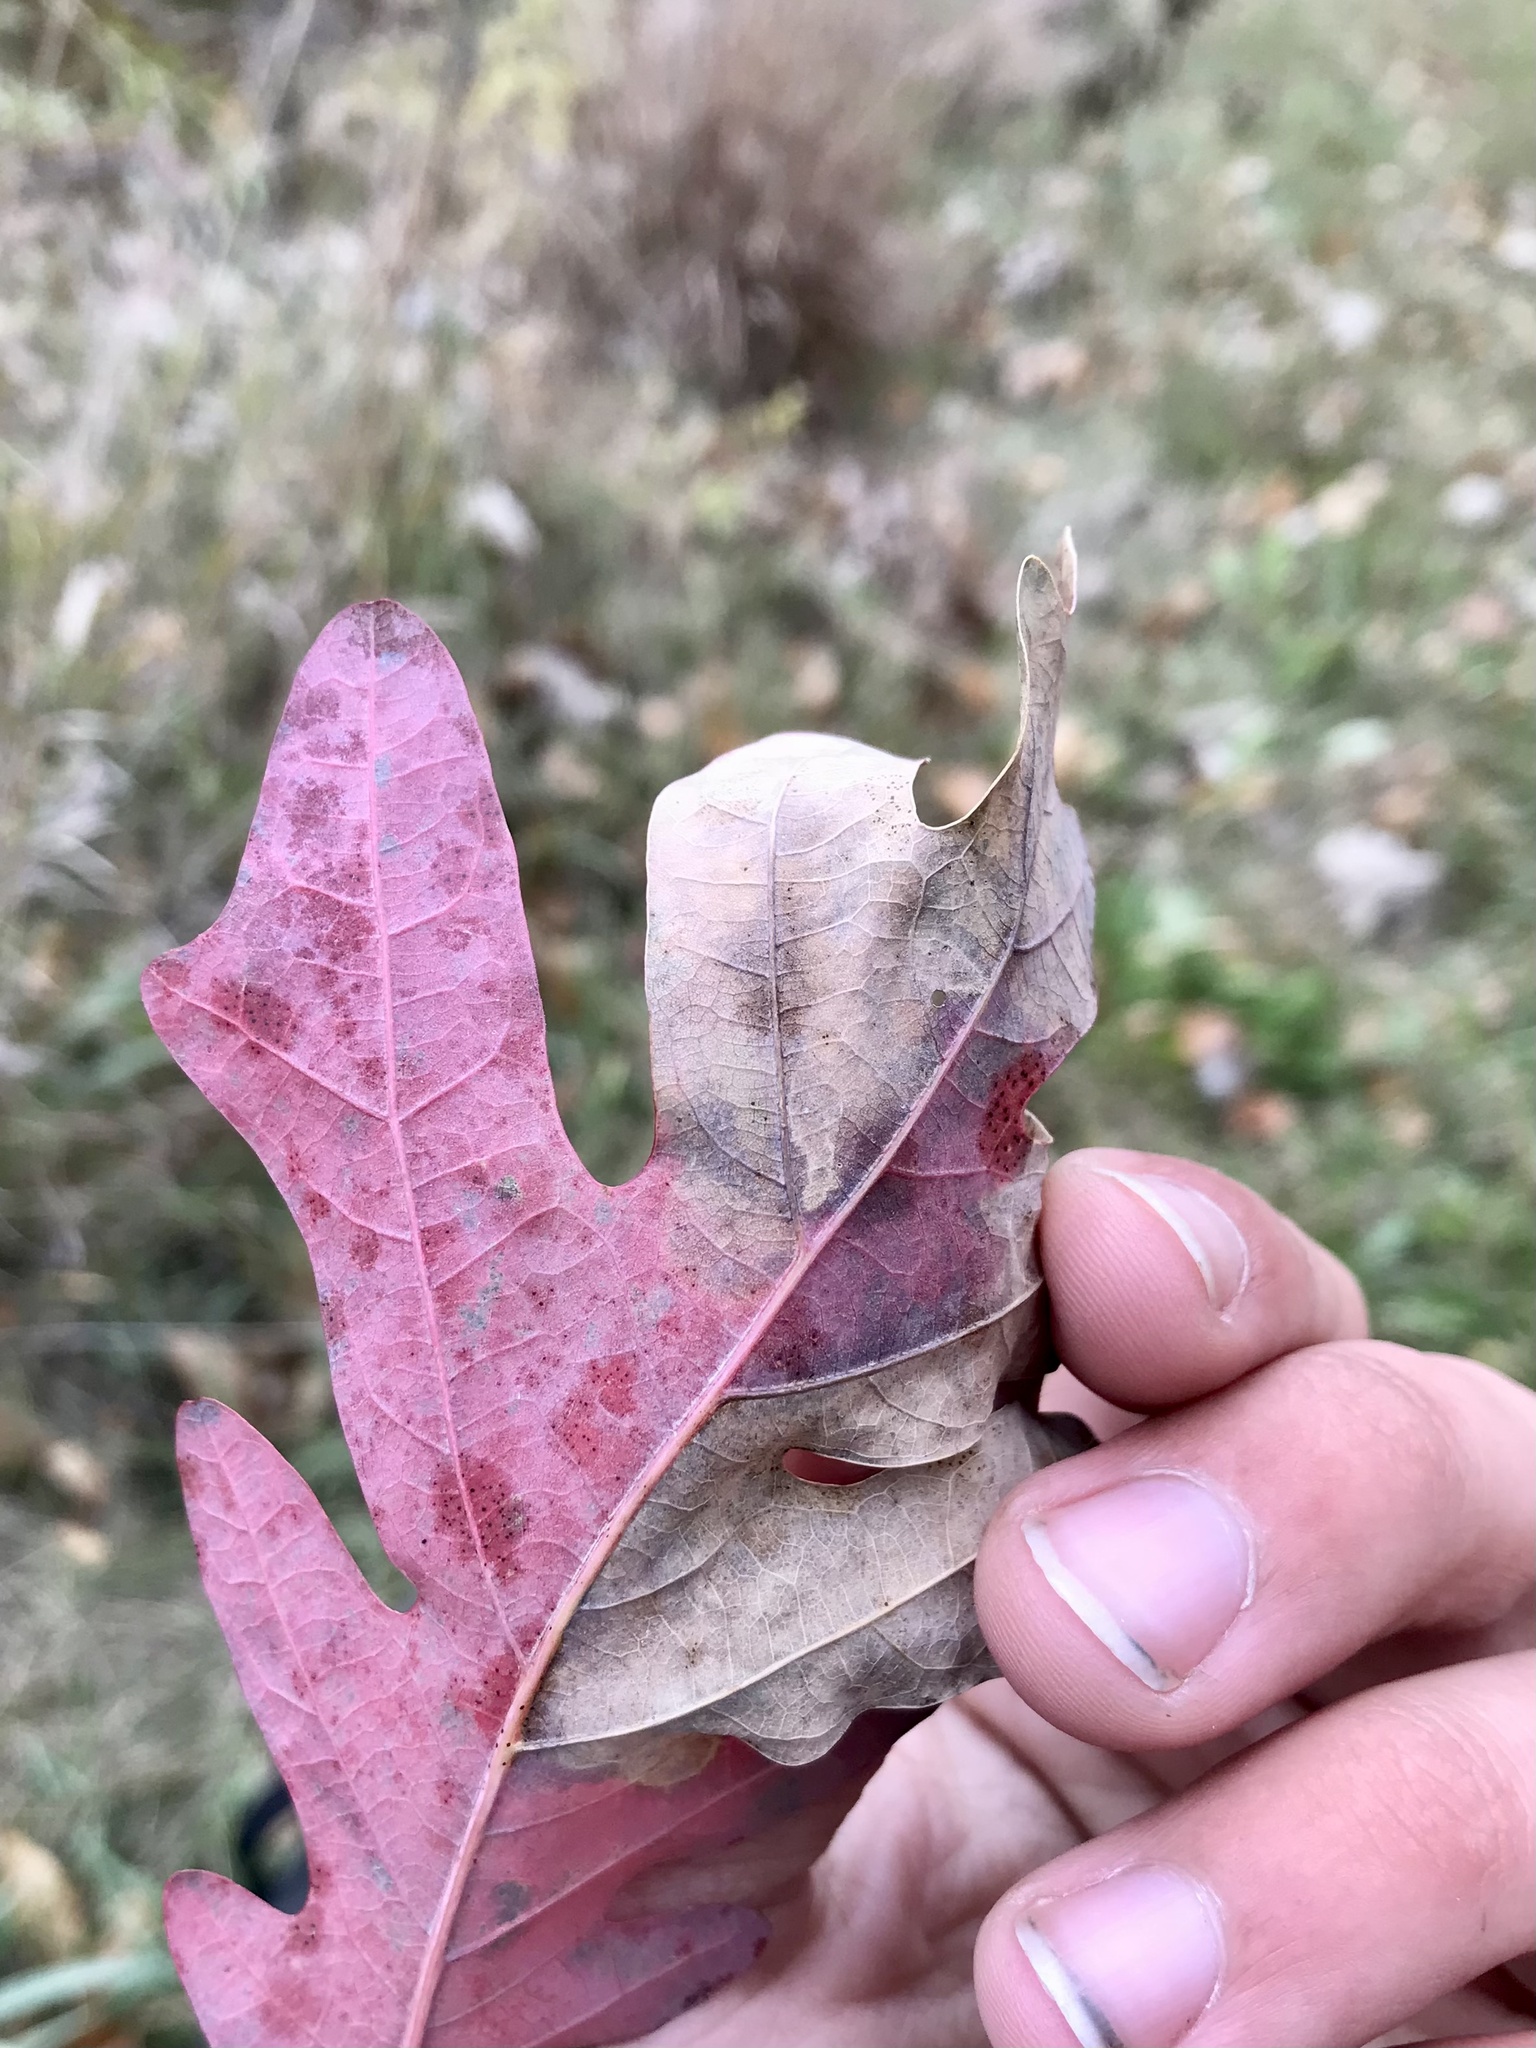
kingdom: Animalia
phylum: Arthropoda
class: Insecta
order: Hymenoptera
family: Tenthredinidae
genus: Profenusa
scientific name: Profenusa
